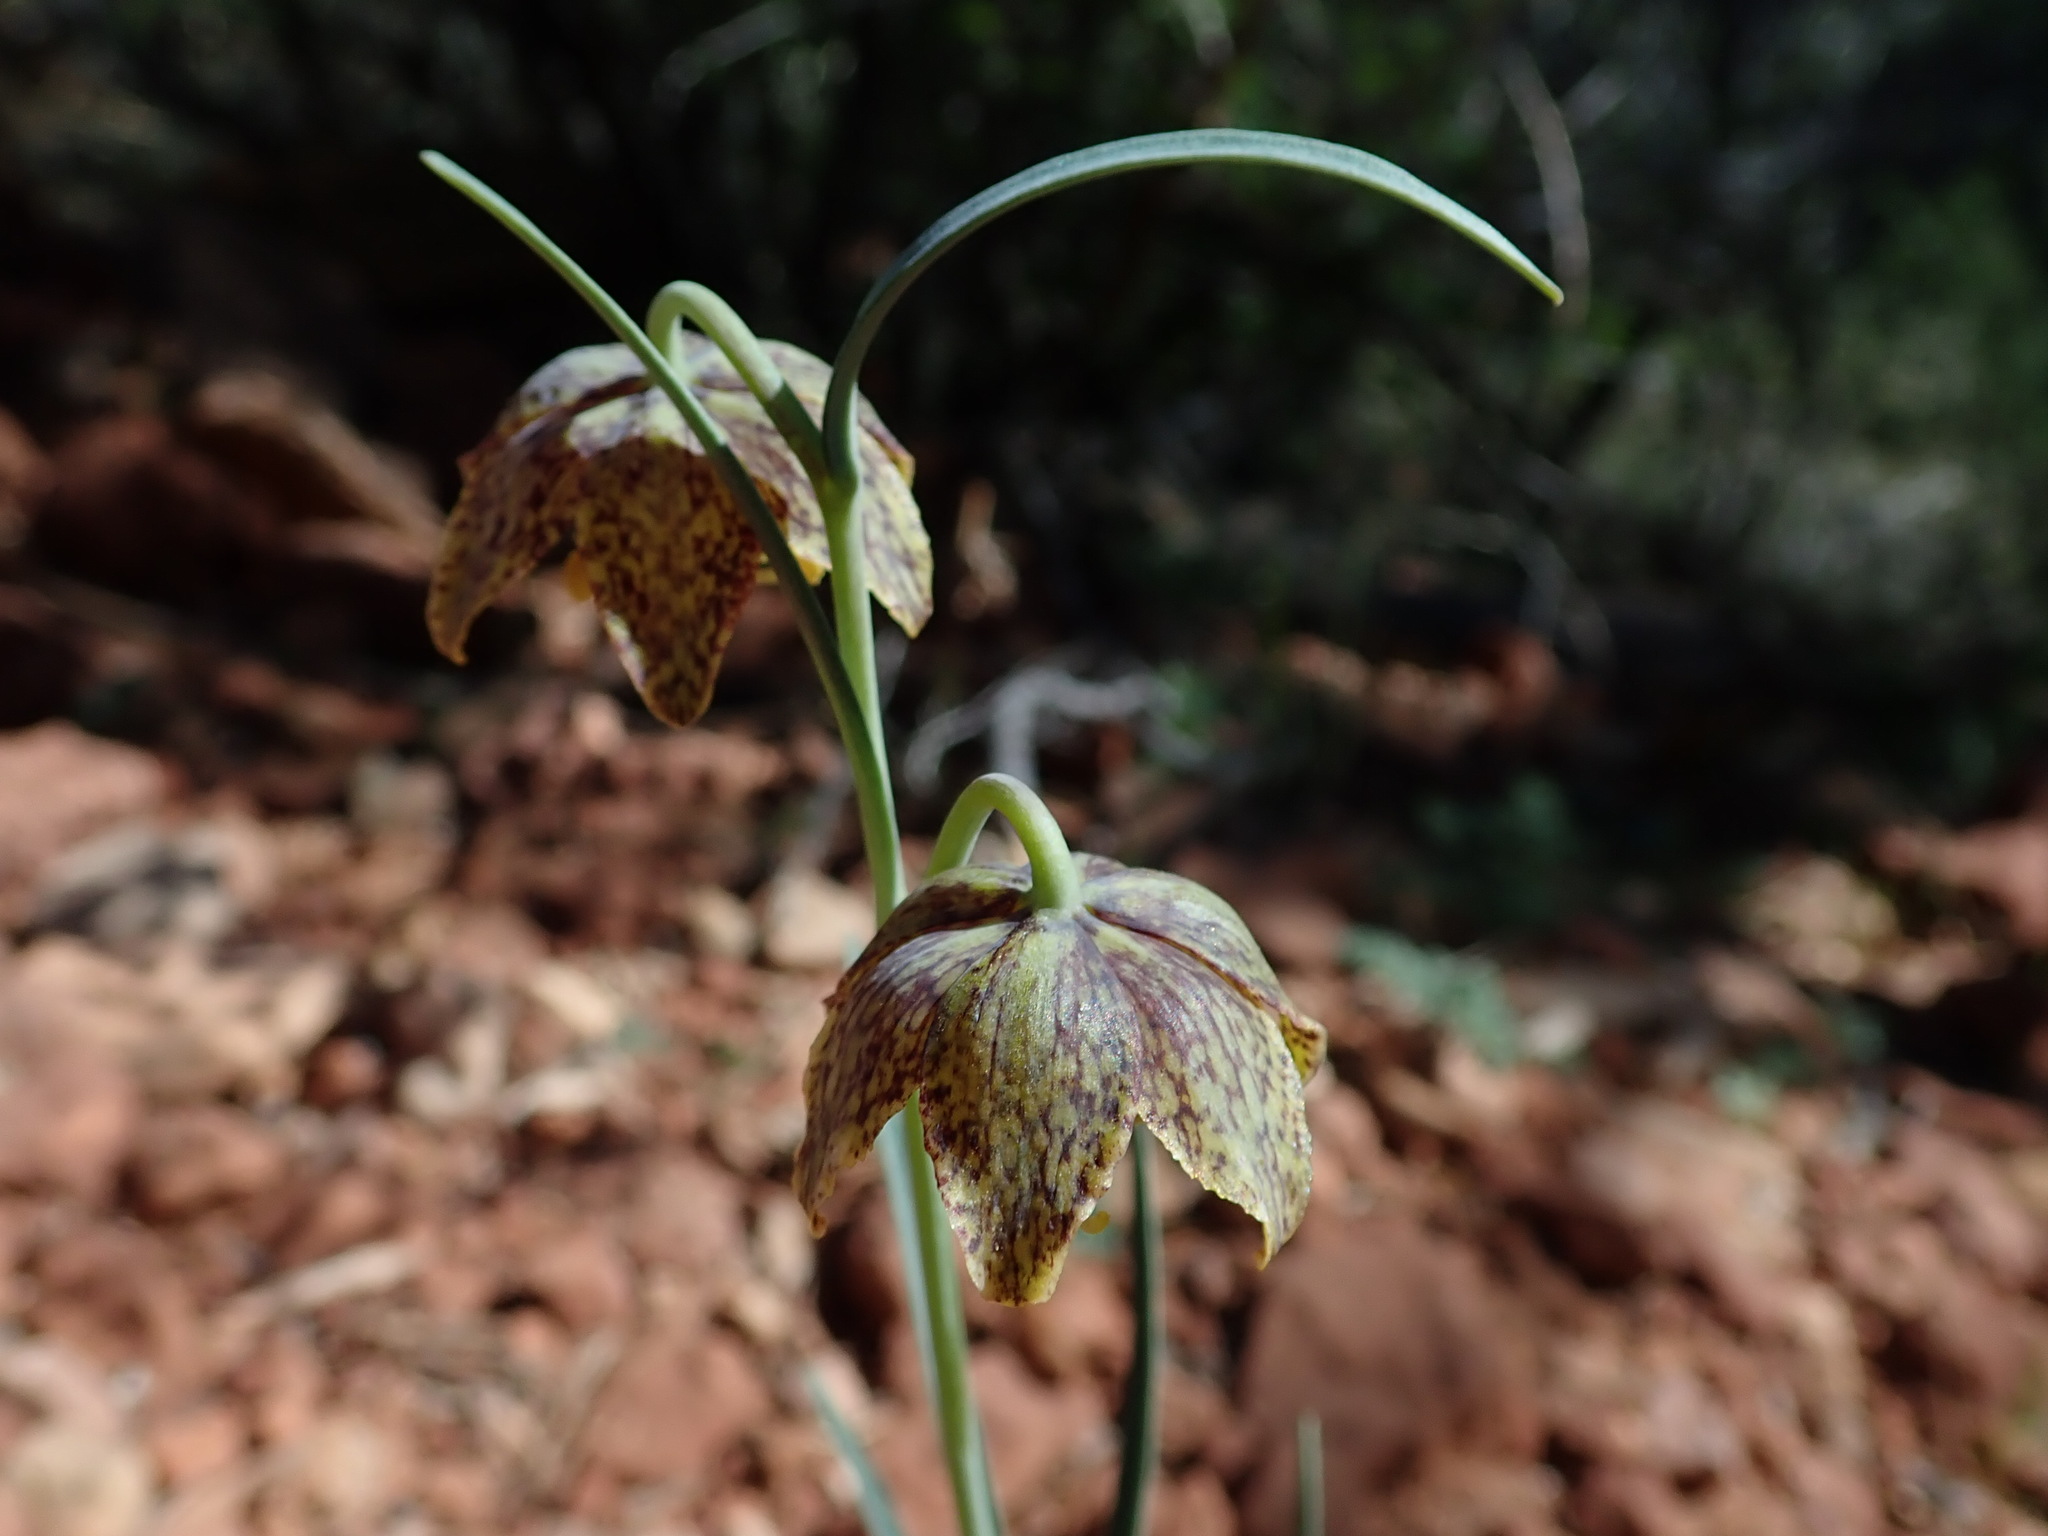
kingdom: Plantae
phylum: Tracheophyta
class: Liliopsida
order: Liliales
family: Liliaceae
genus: Fritillaria
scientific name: Fritillaria atropurpurea
